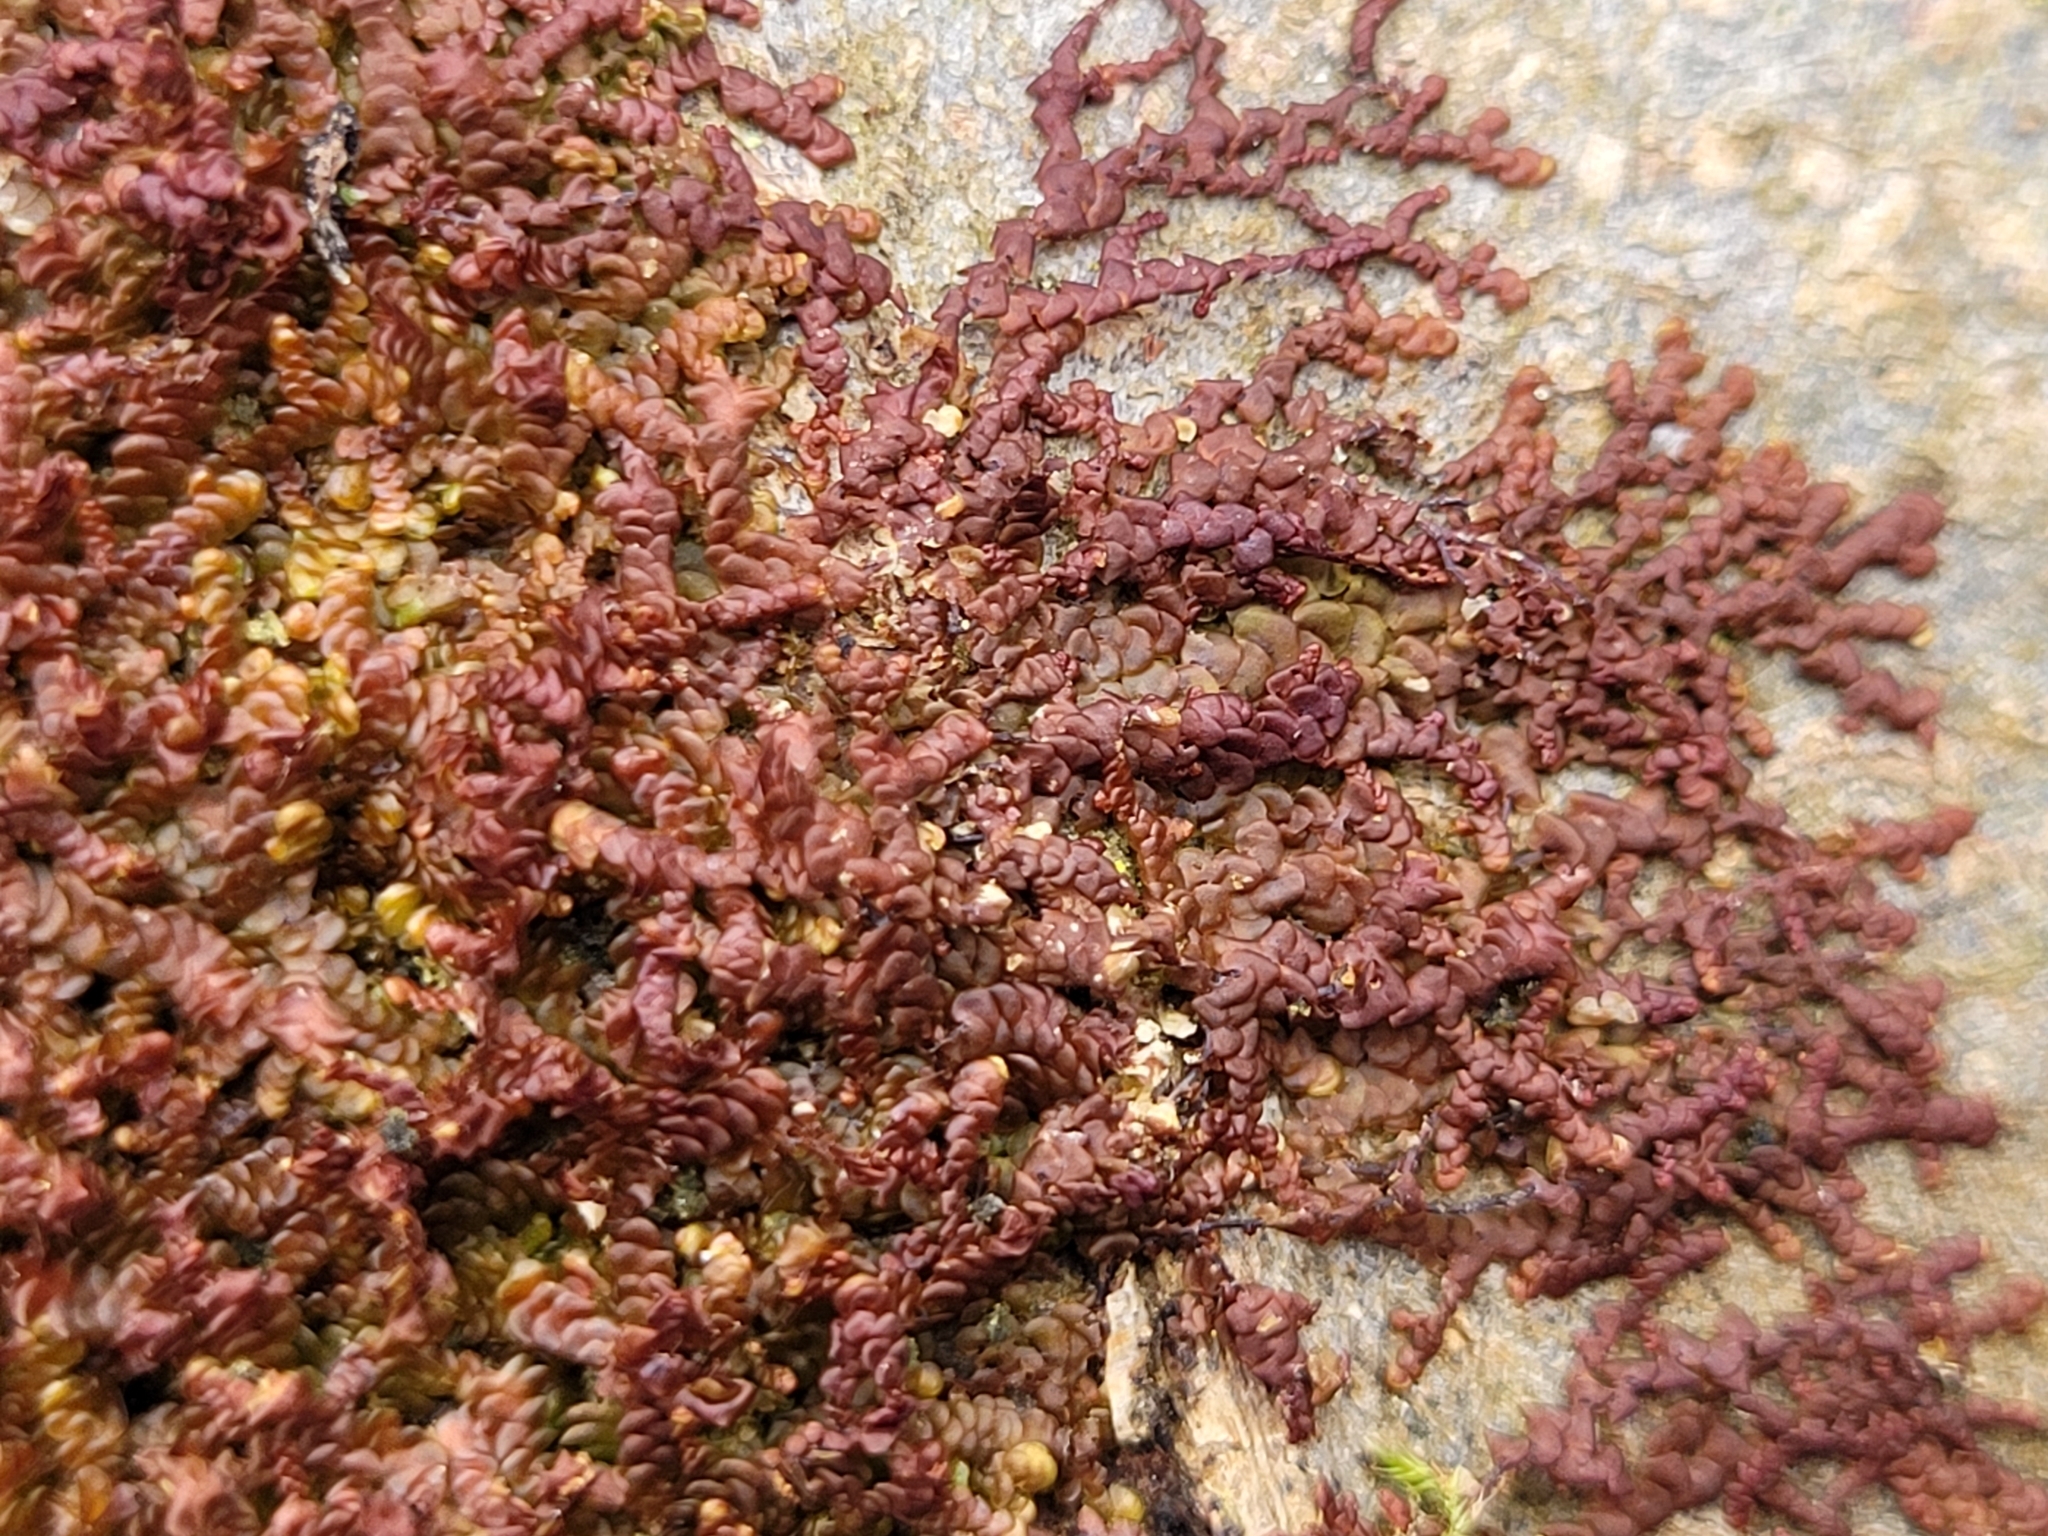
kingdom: Plantae
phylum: Marchantiophyta
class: Jungermanniopsida
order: Porellales
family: Frullaniaceae
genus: Frullania
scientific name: Frullania dilatata
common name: Dilated scalewort
